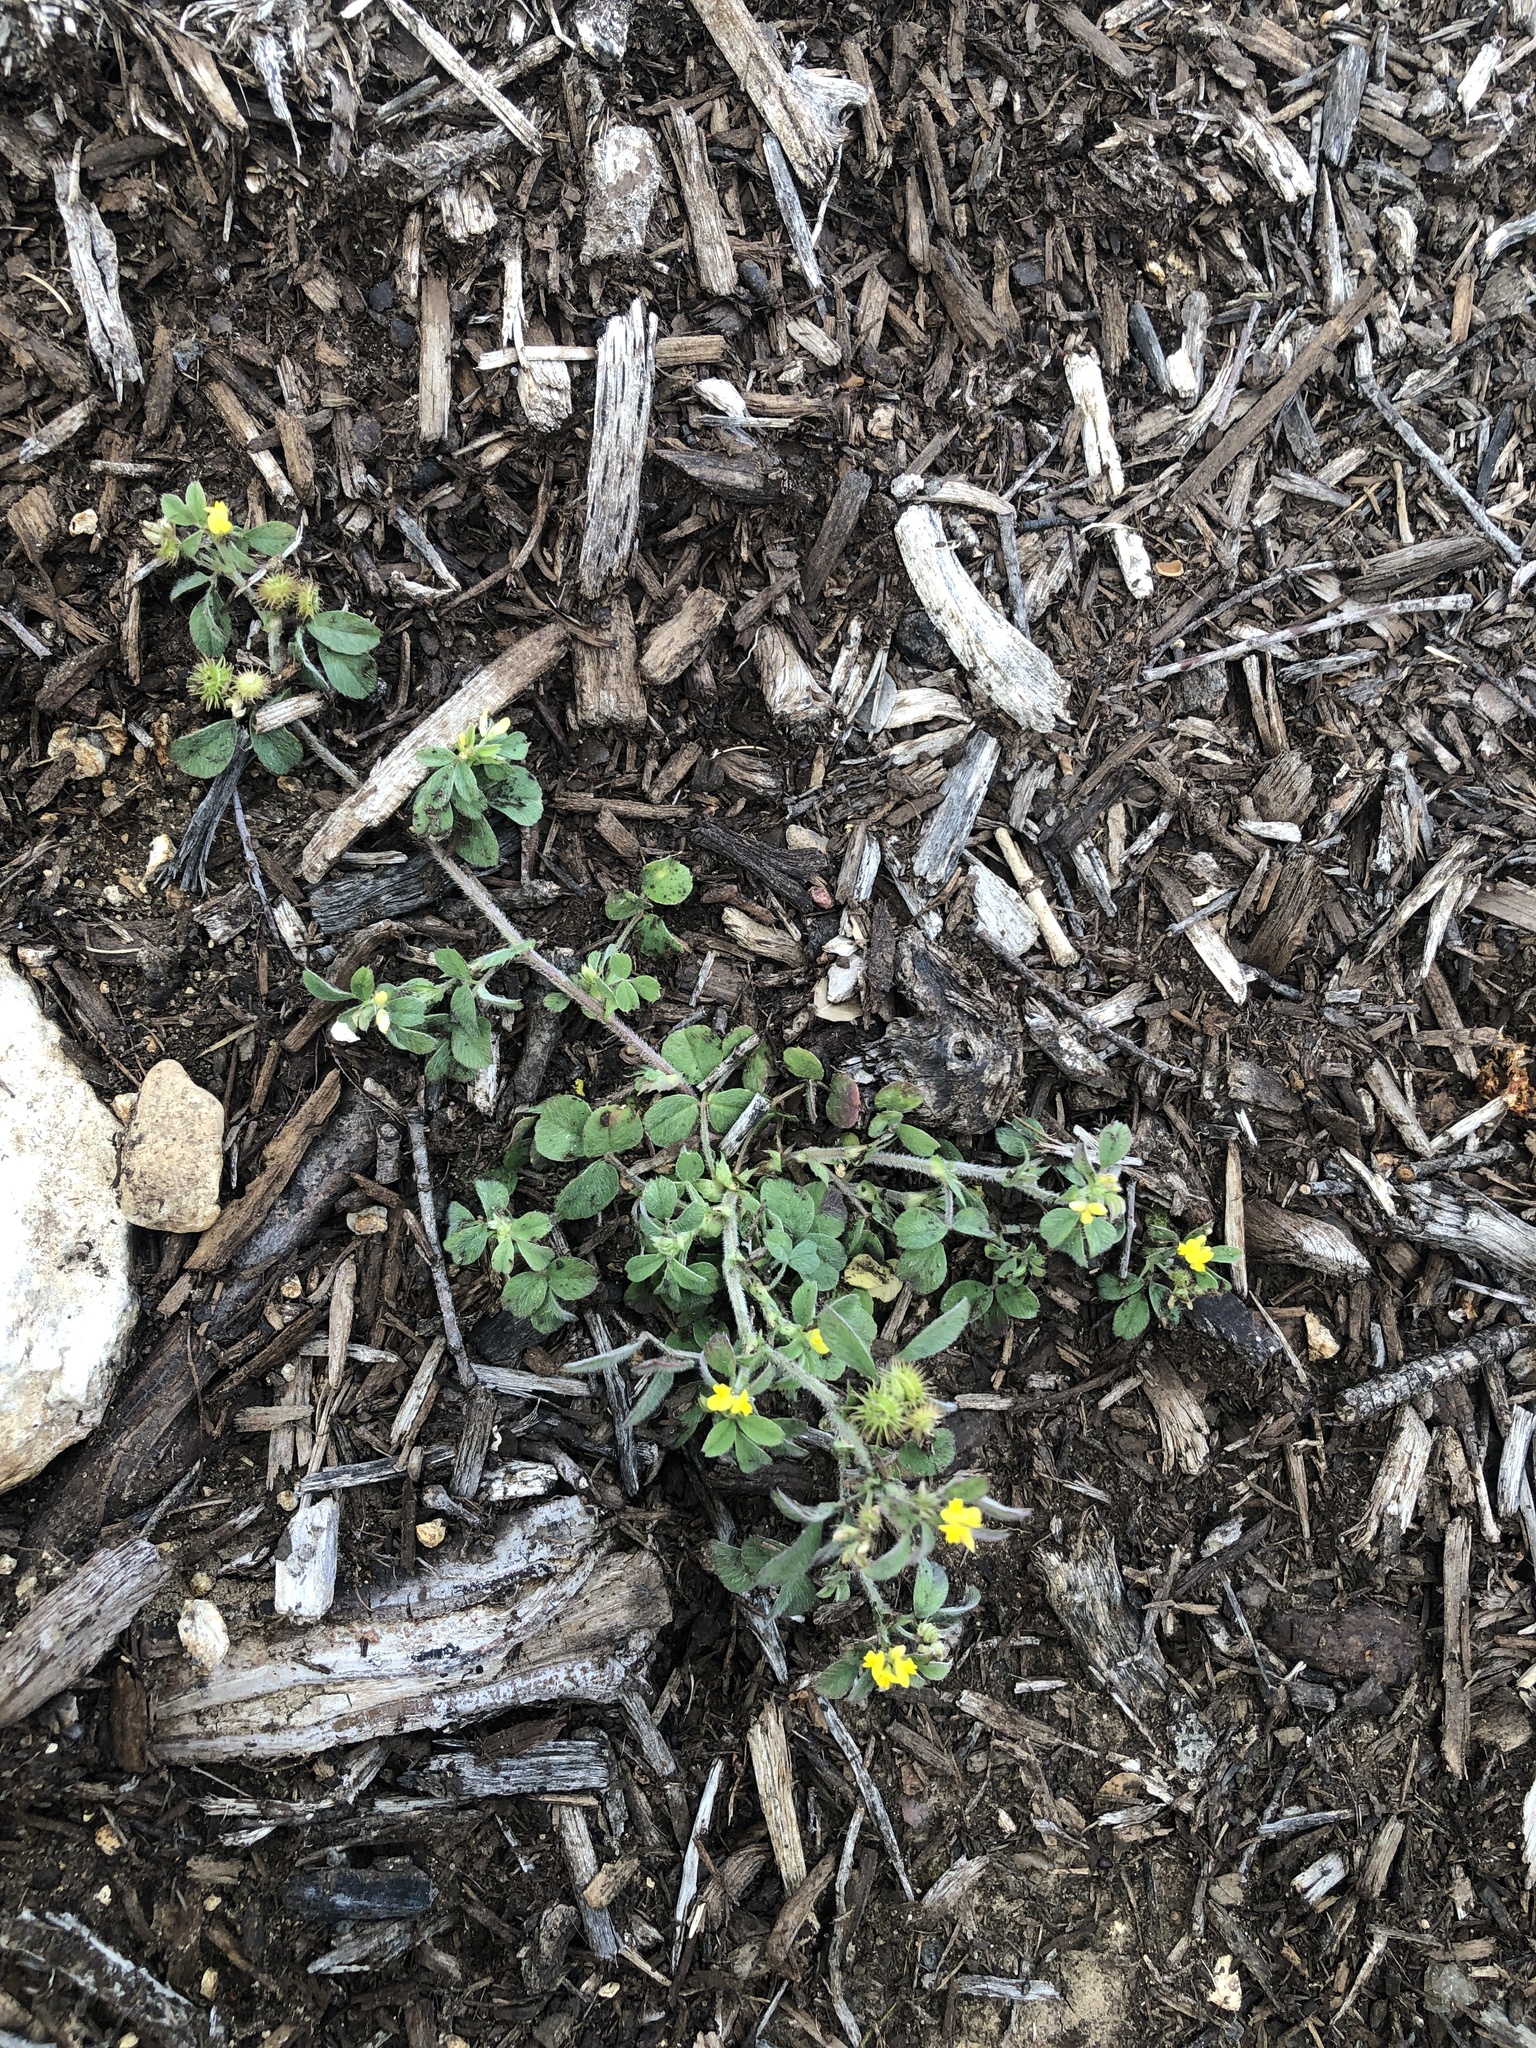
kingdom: Plantae
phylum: Tracheophyta
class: Magnoliopsida
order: Fabales
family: Fabaceae
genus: Medicago
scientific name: Medicago minima
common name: Little bur-clover
